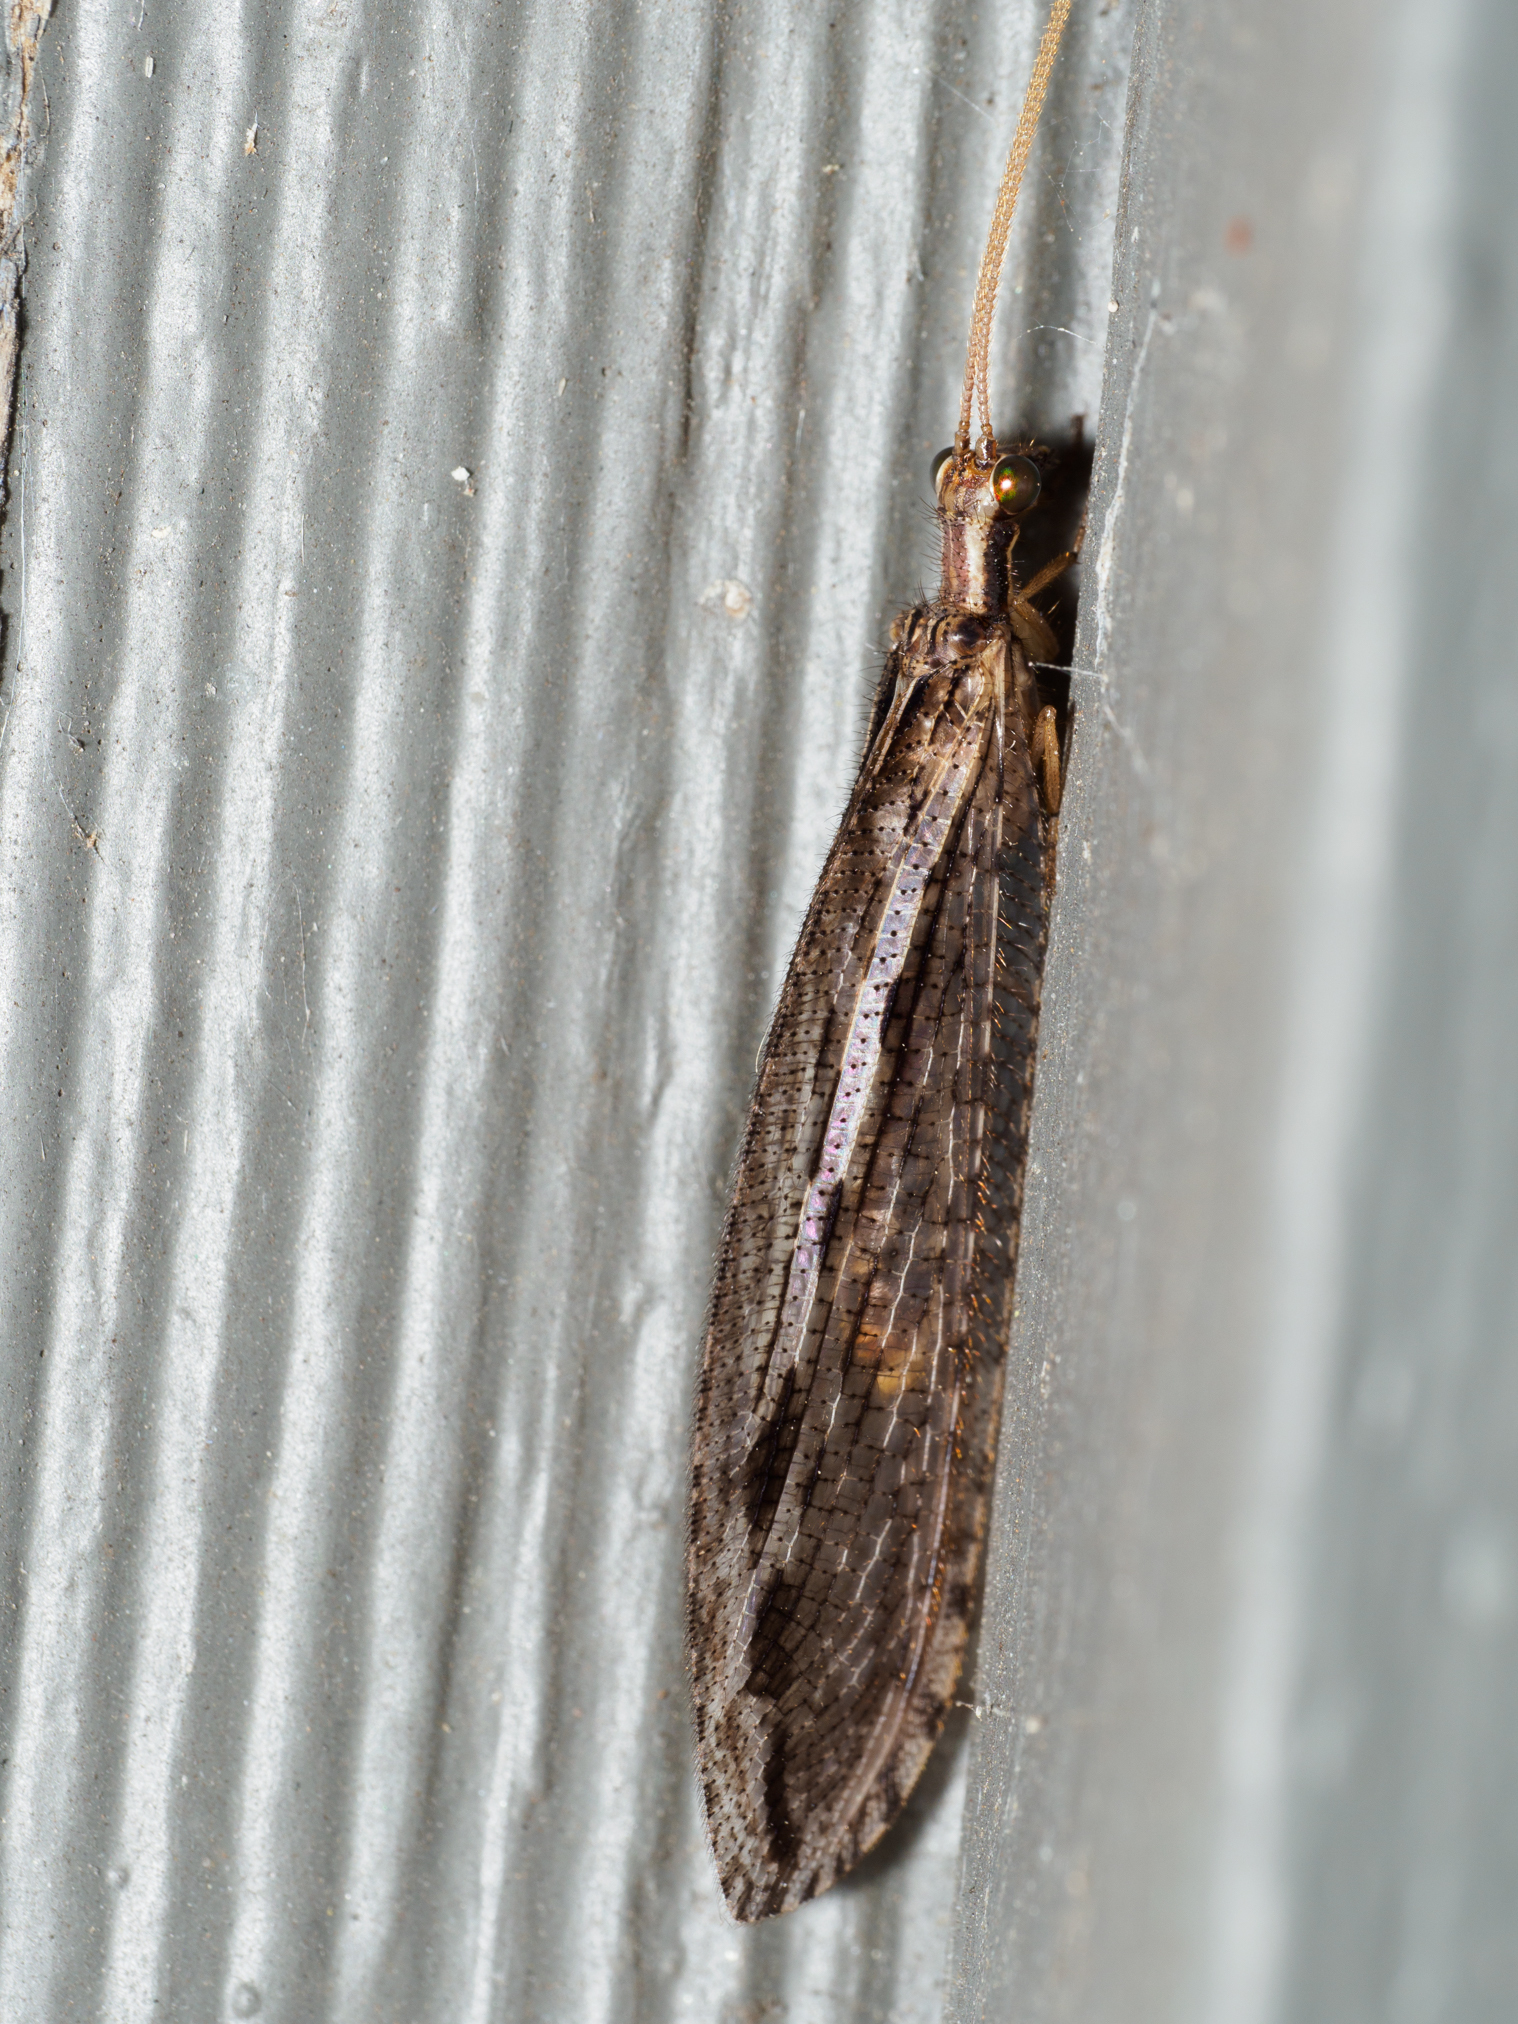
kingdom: Animalia
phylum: Arthropoda
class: Insecta
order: Neuroptera
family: Osmylidae
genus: Stenosmylus
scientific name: Stenosmylus stenopterus
